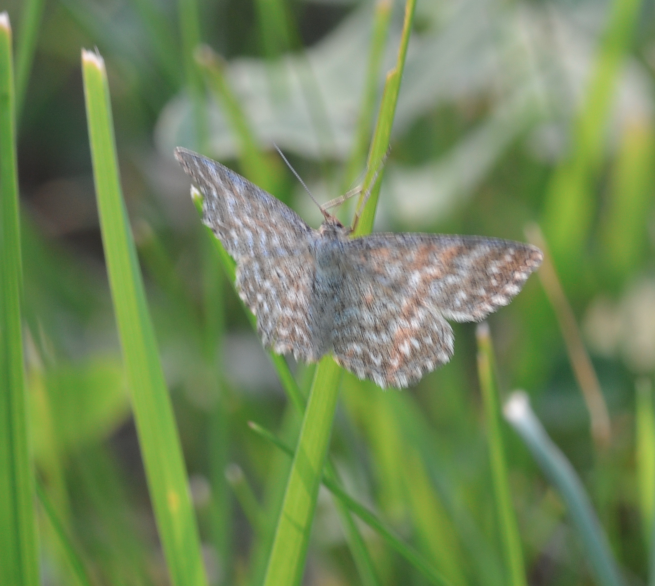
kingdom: Animalia
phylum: Arthropoda
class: Insecta
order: Lepidoptera
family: Geometridae
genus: Scopula
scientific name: Scopula immorata
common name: Lewes wave
